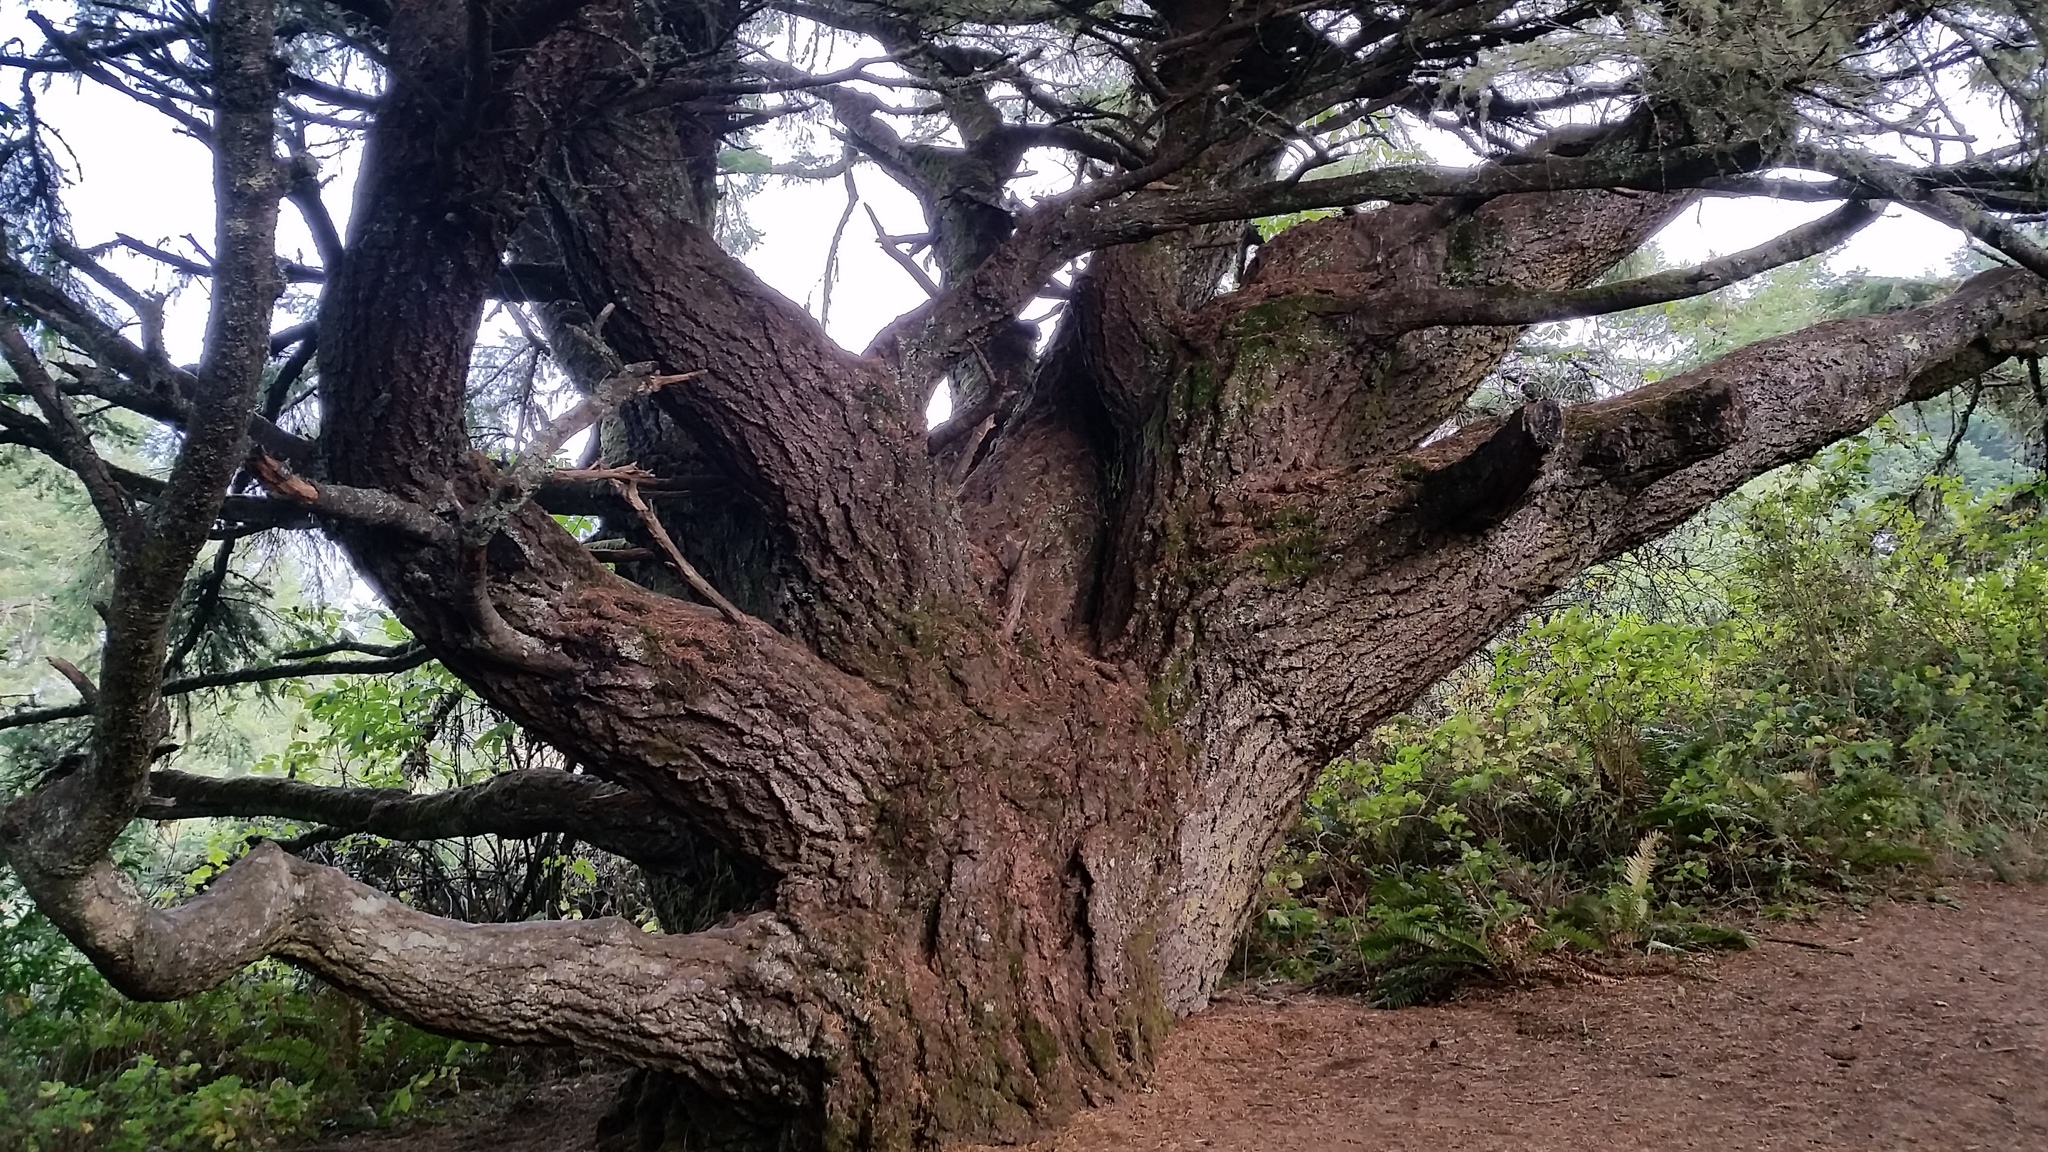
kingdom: Plantae
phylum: Tracheophyta
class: Pinopsida
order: Pinales
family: Pinaceae
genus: Pseudotsuga
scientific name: Pseudotsuga menziesii
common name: Douglas fir
